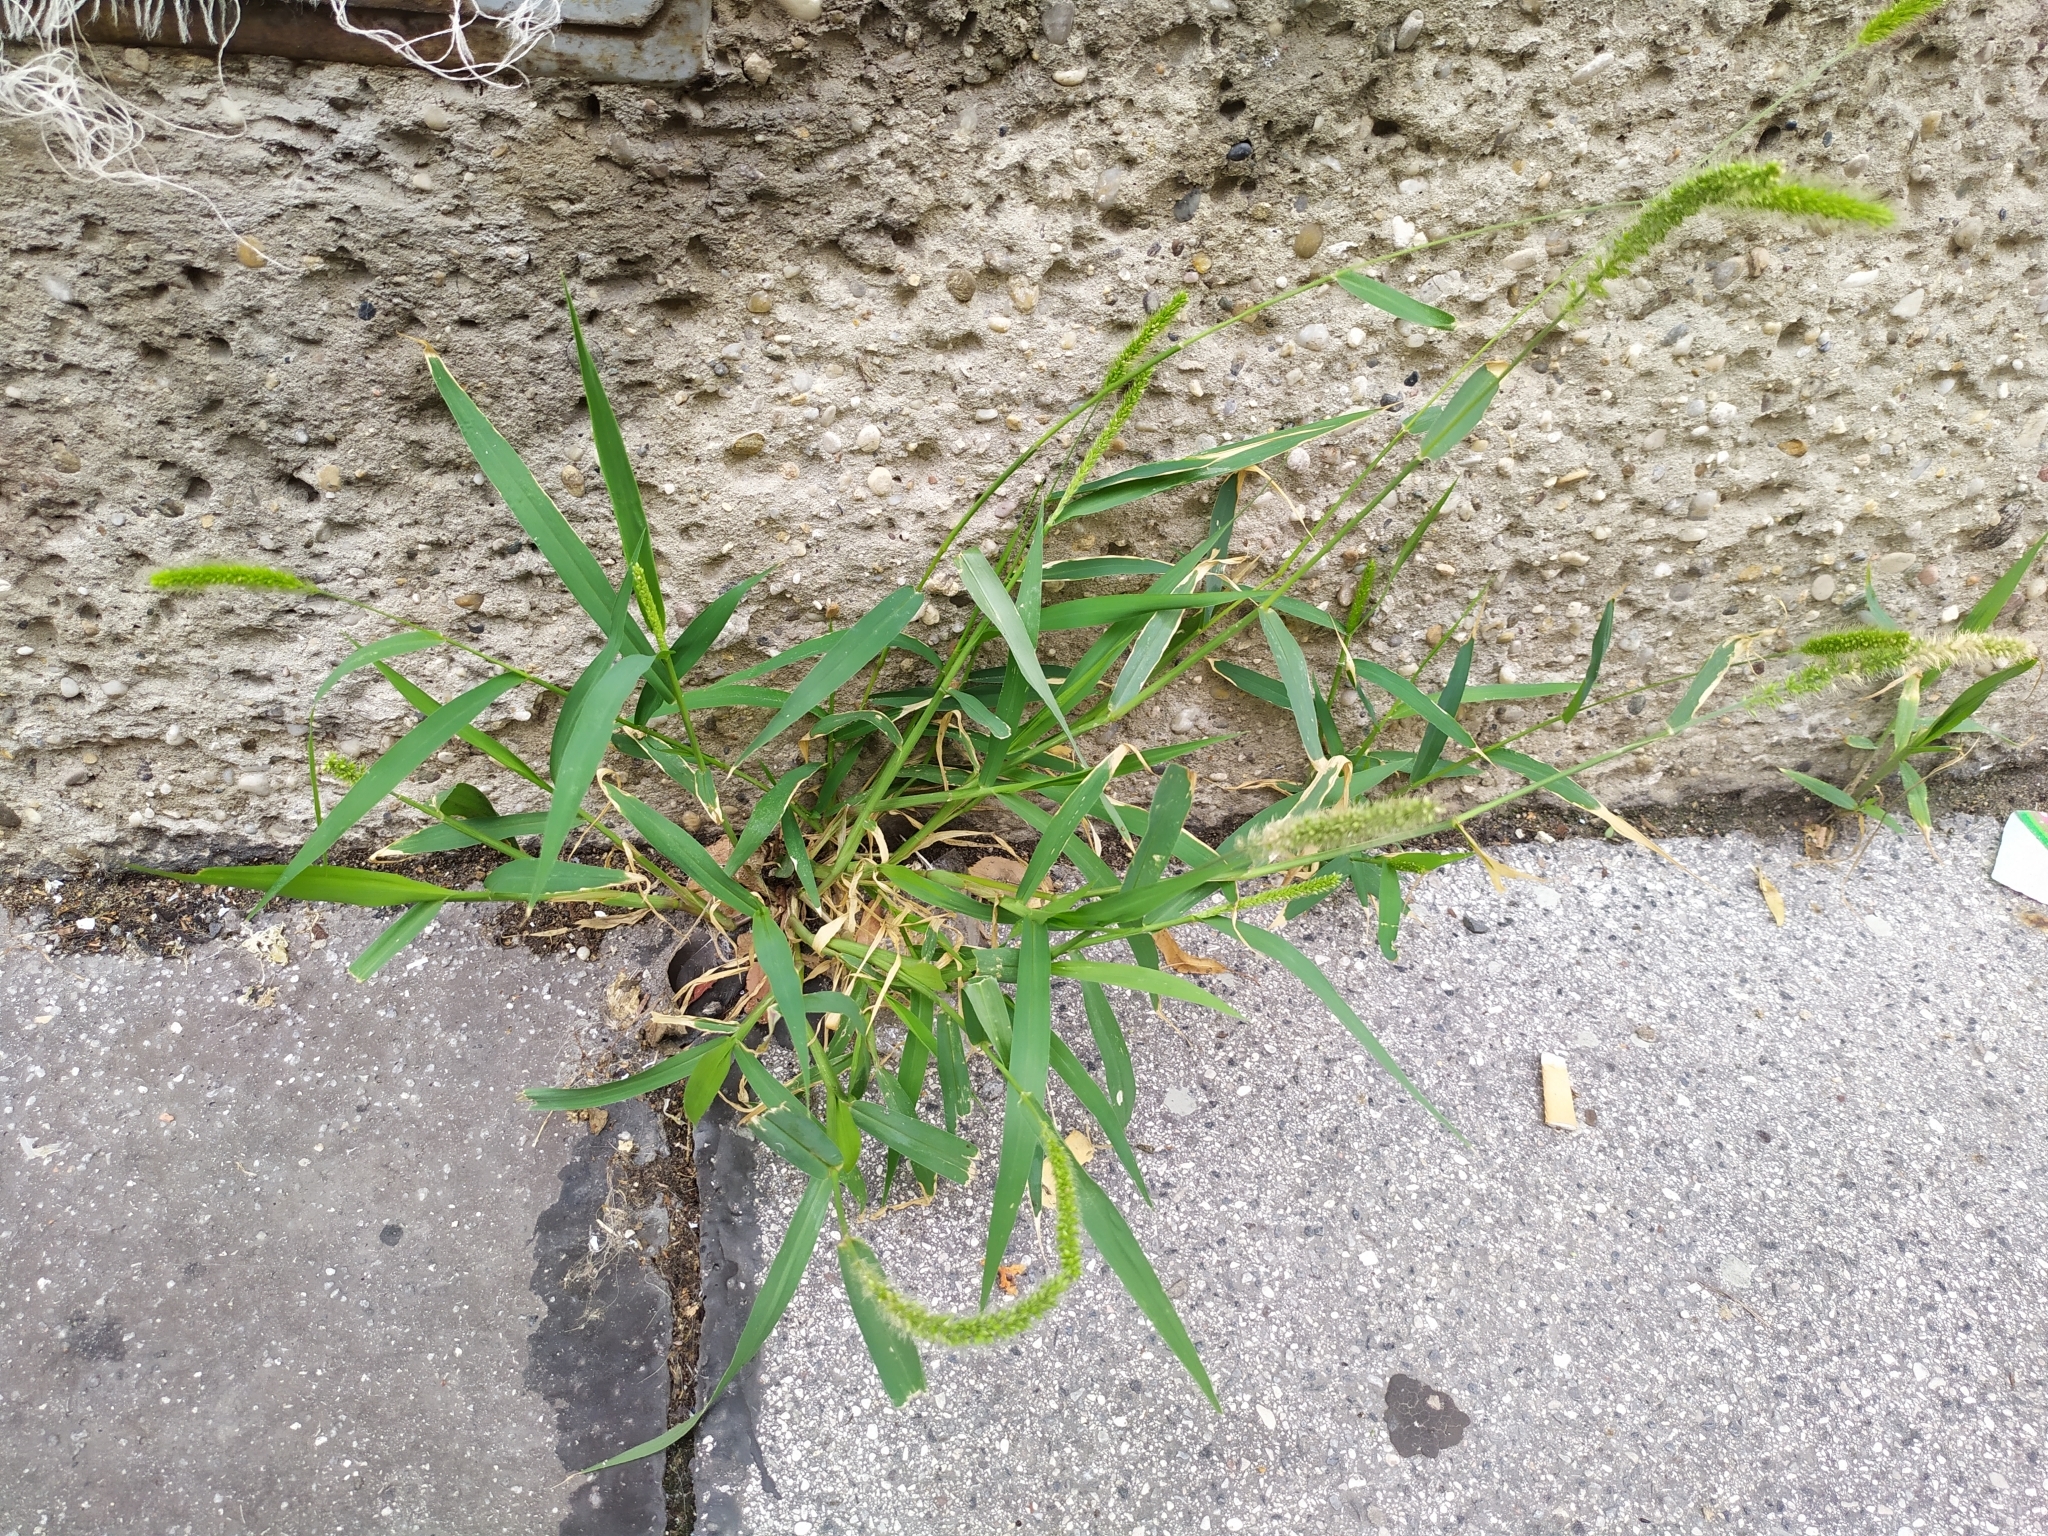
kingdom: Plantae
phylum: Tracheophyta
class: Liliopsida
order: Poales
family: Poaceae
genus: Setaria
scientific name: Setaria viridis
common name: Green bristlegrass
